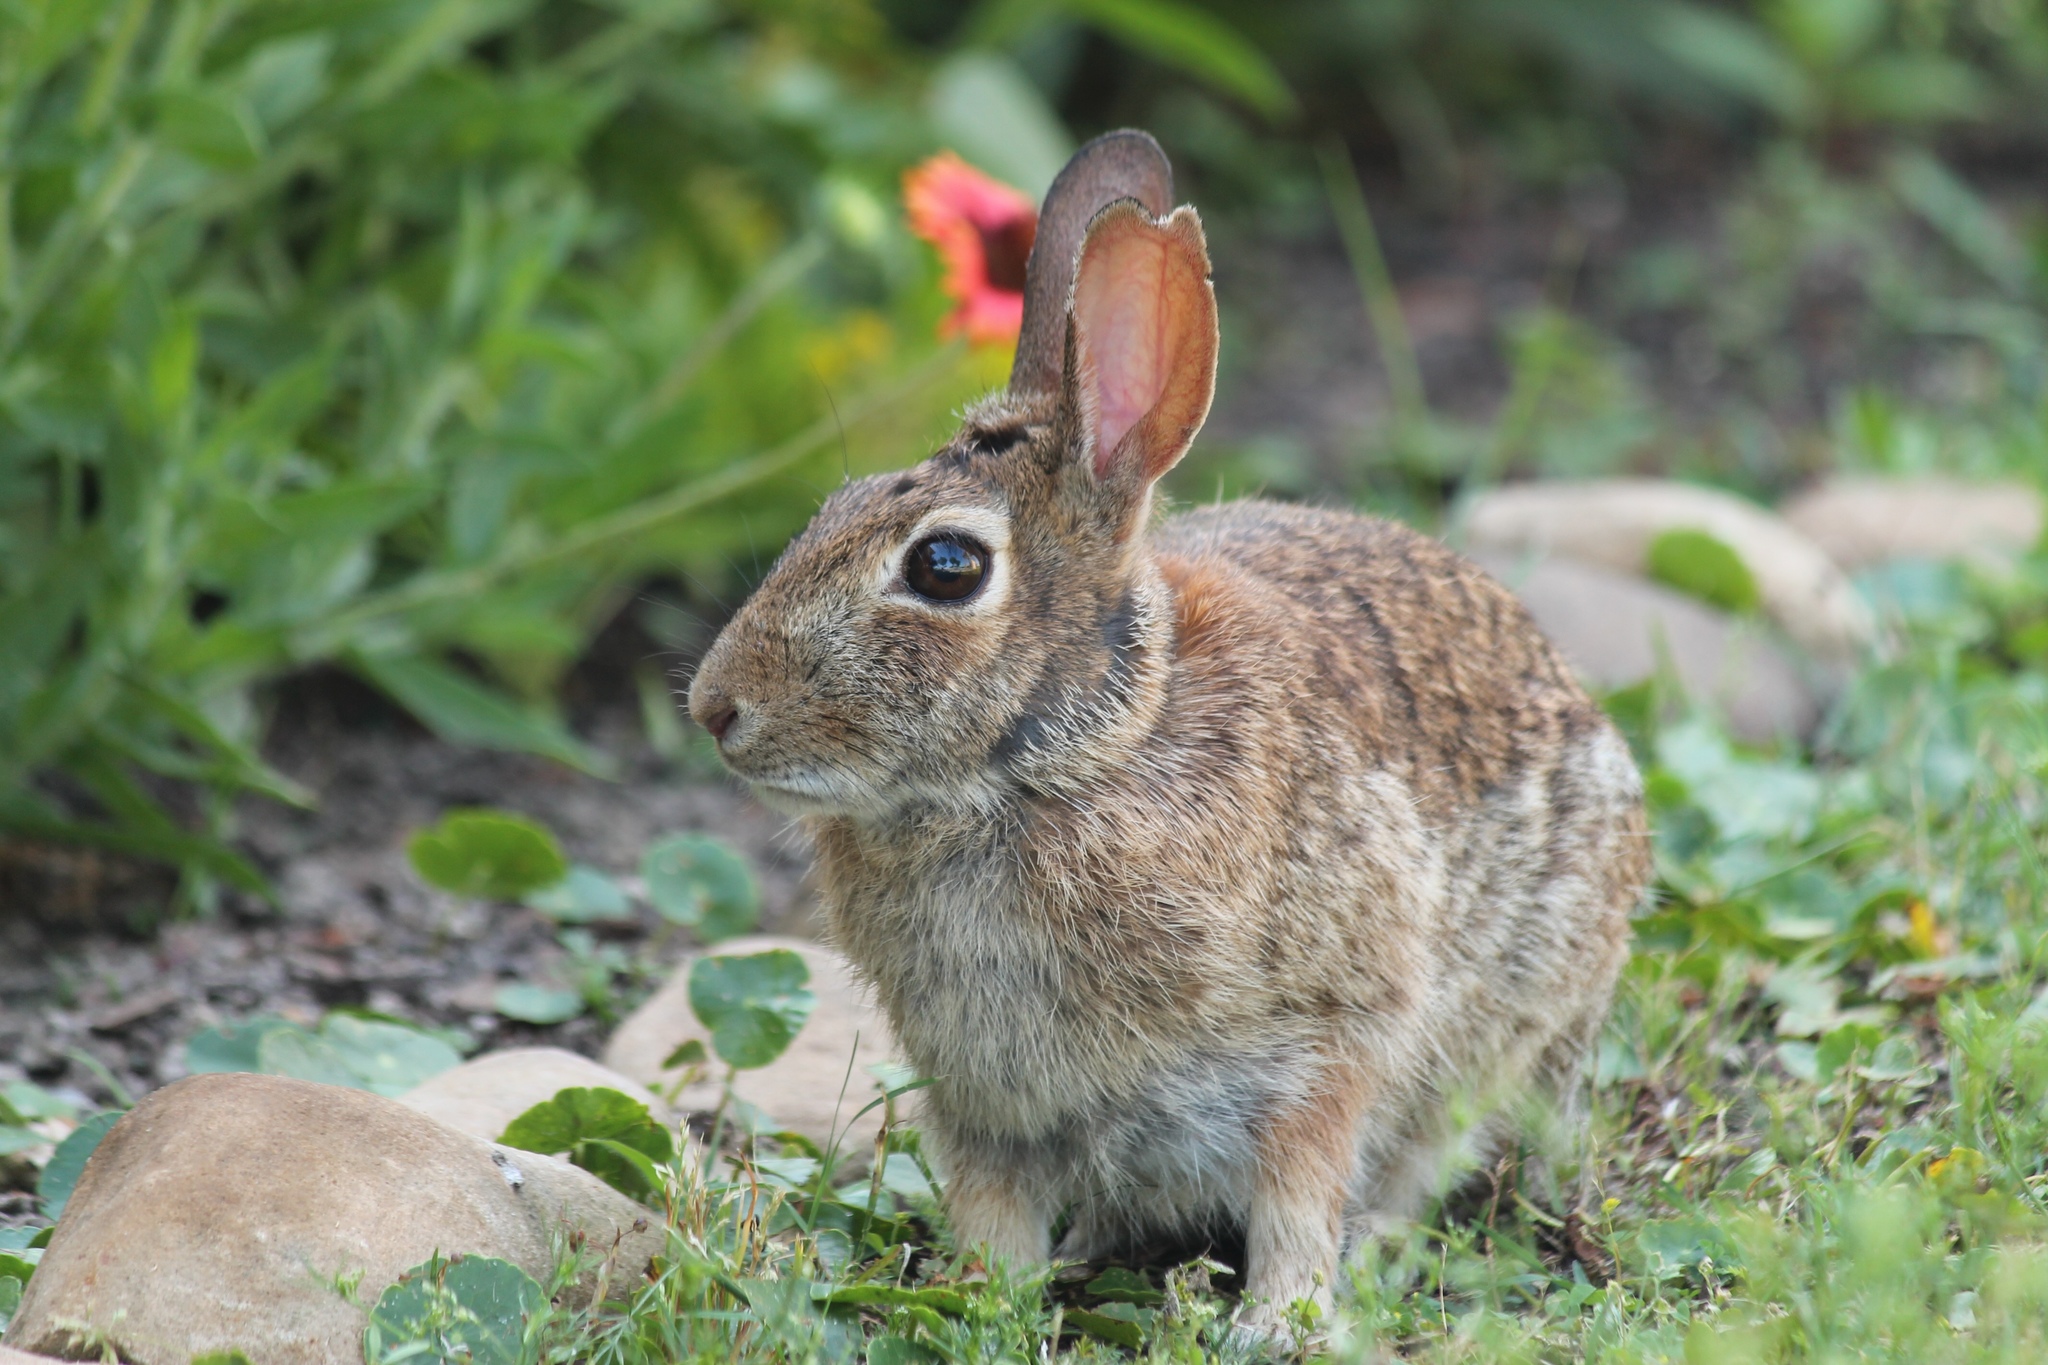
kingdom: Animalia
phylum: Chordata
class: Mammalia
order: Lagomorpha
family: Leporidae
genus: Sylvilagus
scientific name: Sylvilagus floridanus
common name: Eastern cottontail
